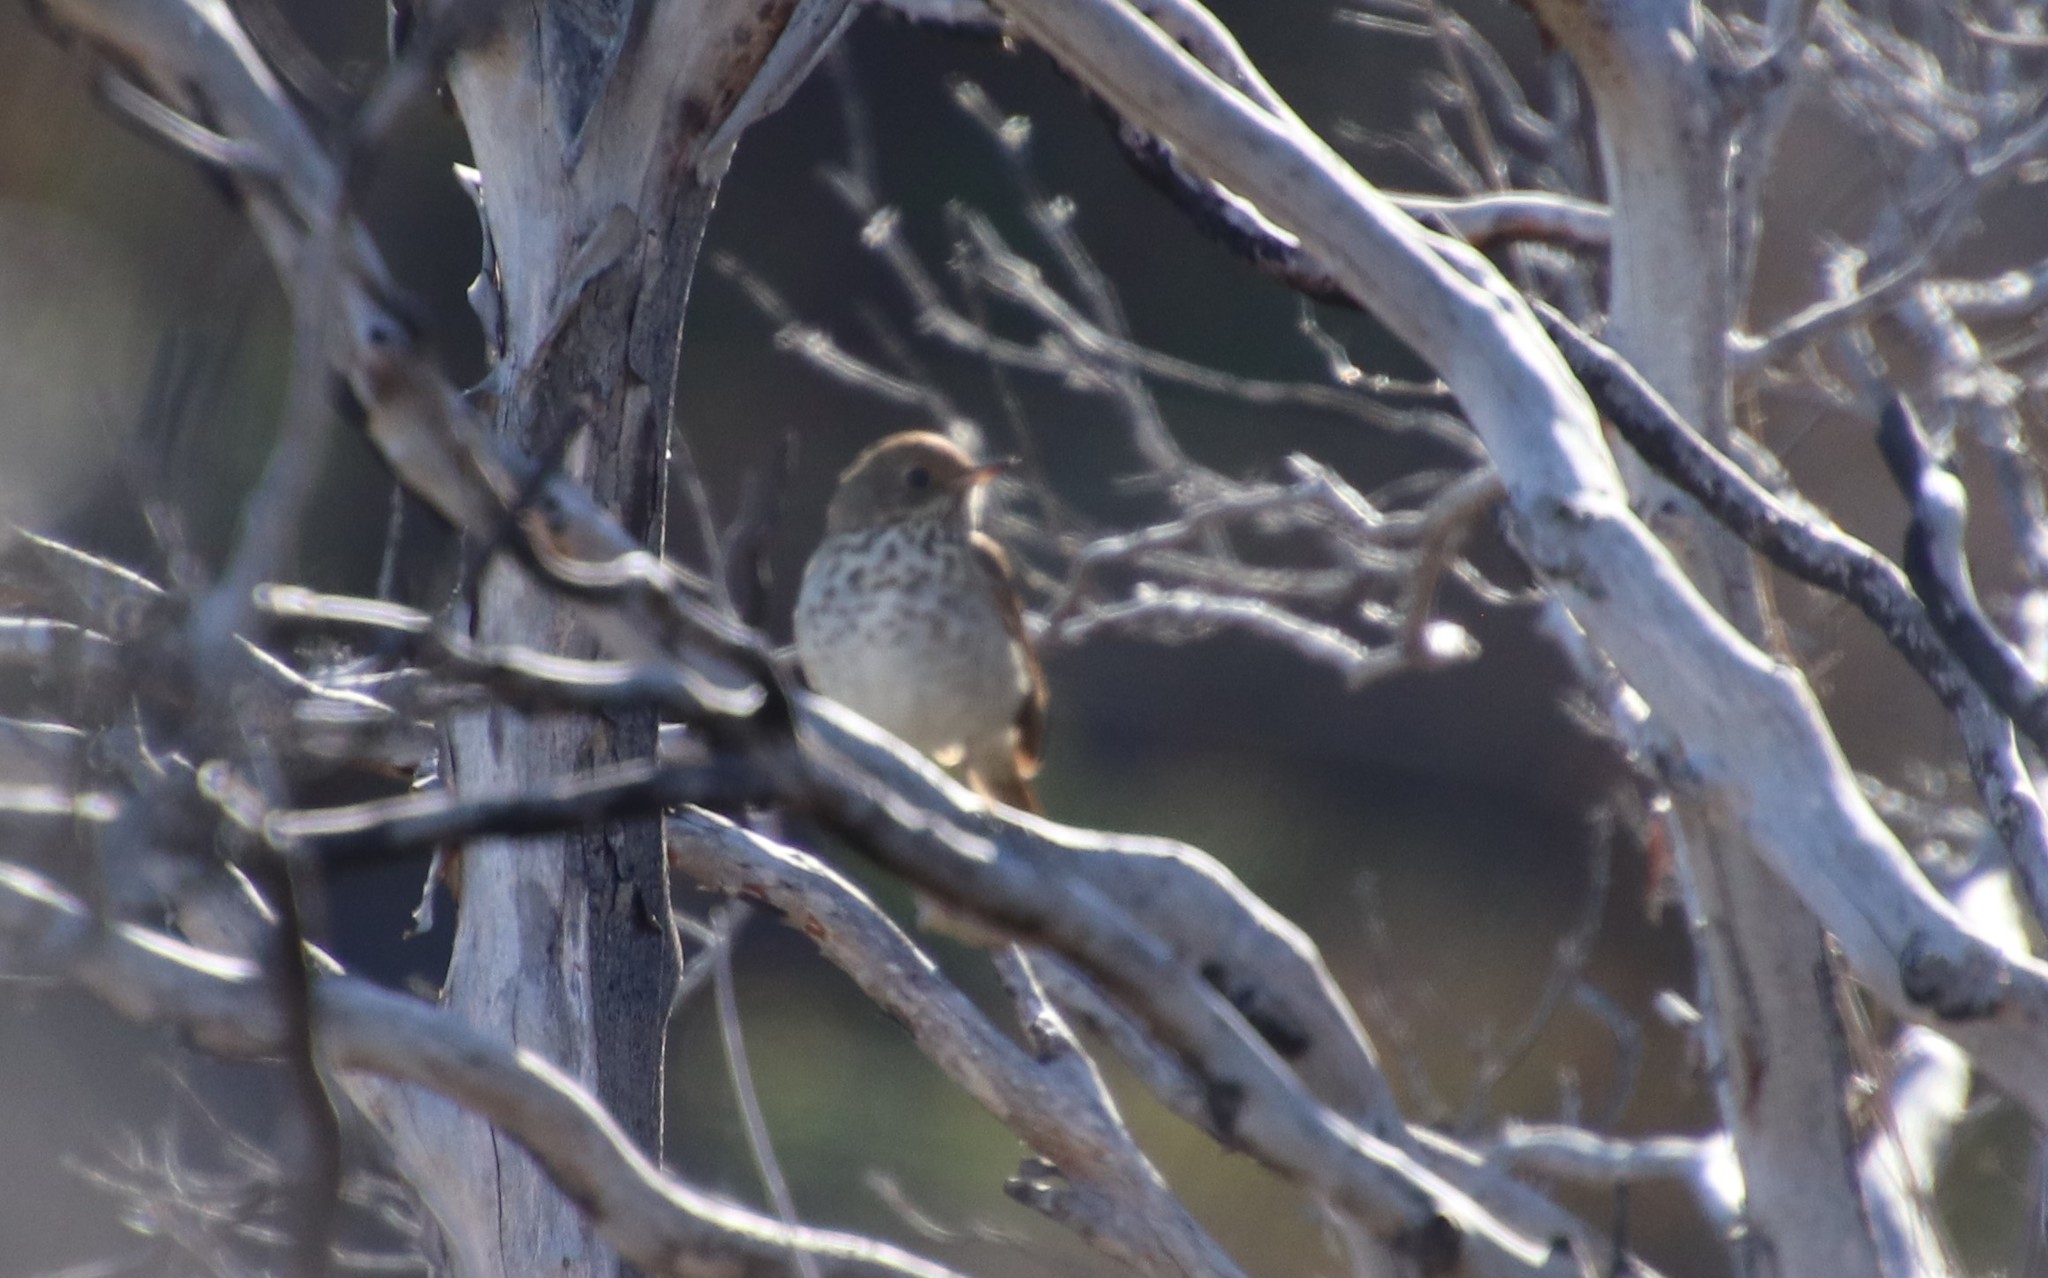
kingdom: Animalia
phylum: Chordata
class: Aves
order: Passeriformes
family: Turdidae
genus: Catharus
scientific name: Catharus guttatus
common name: Hermit thrush
